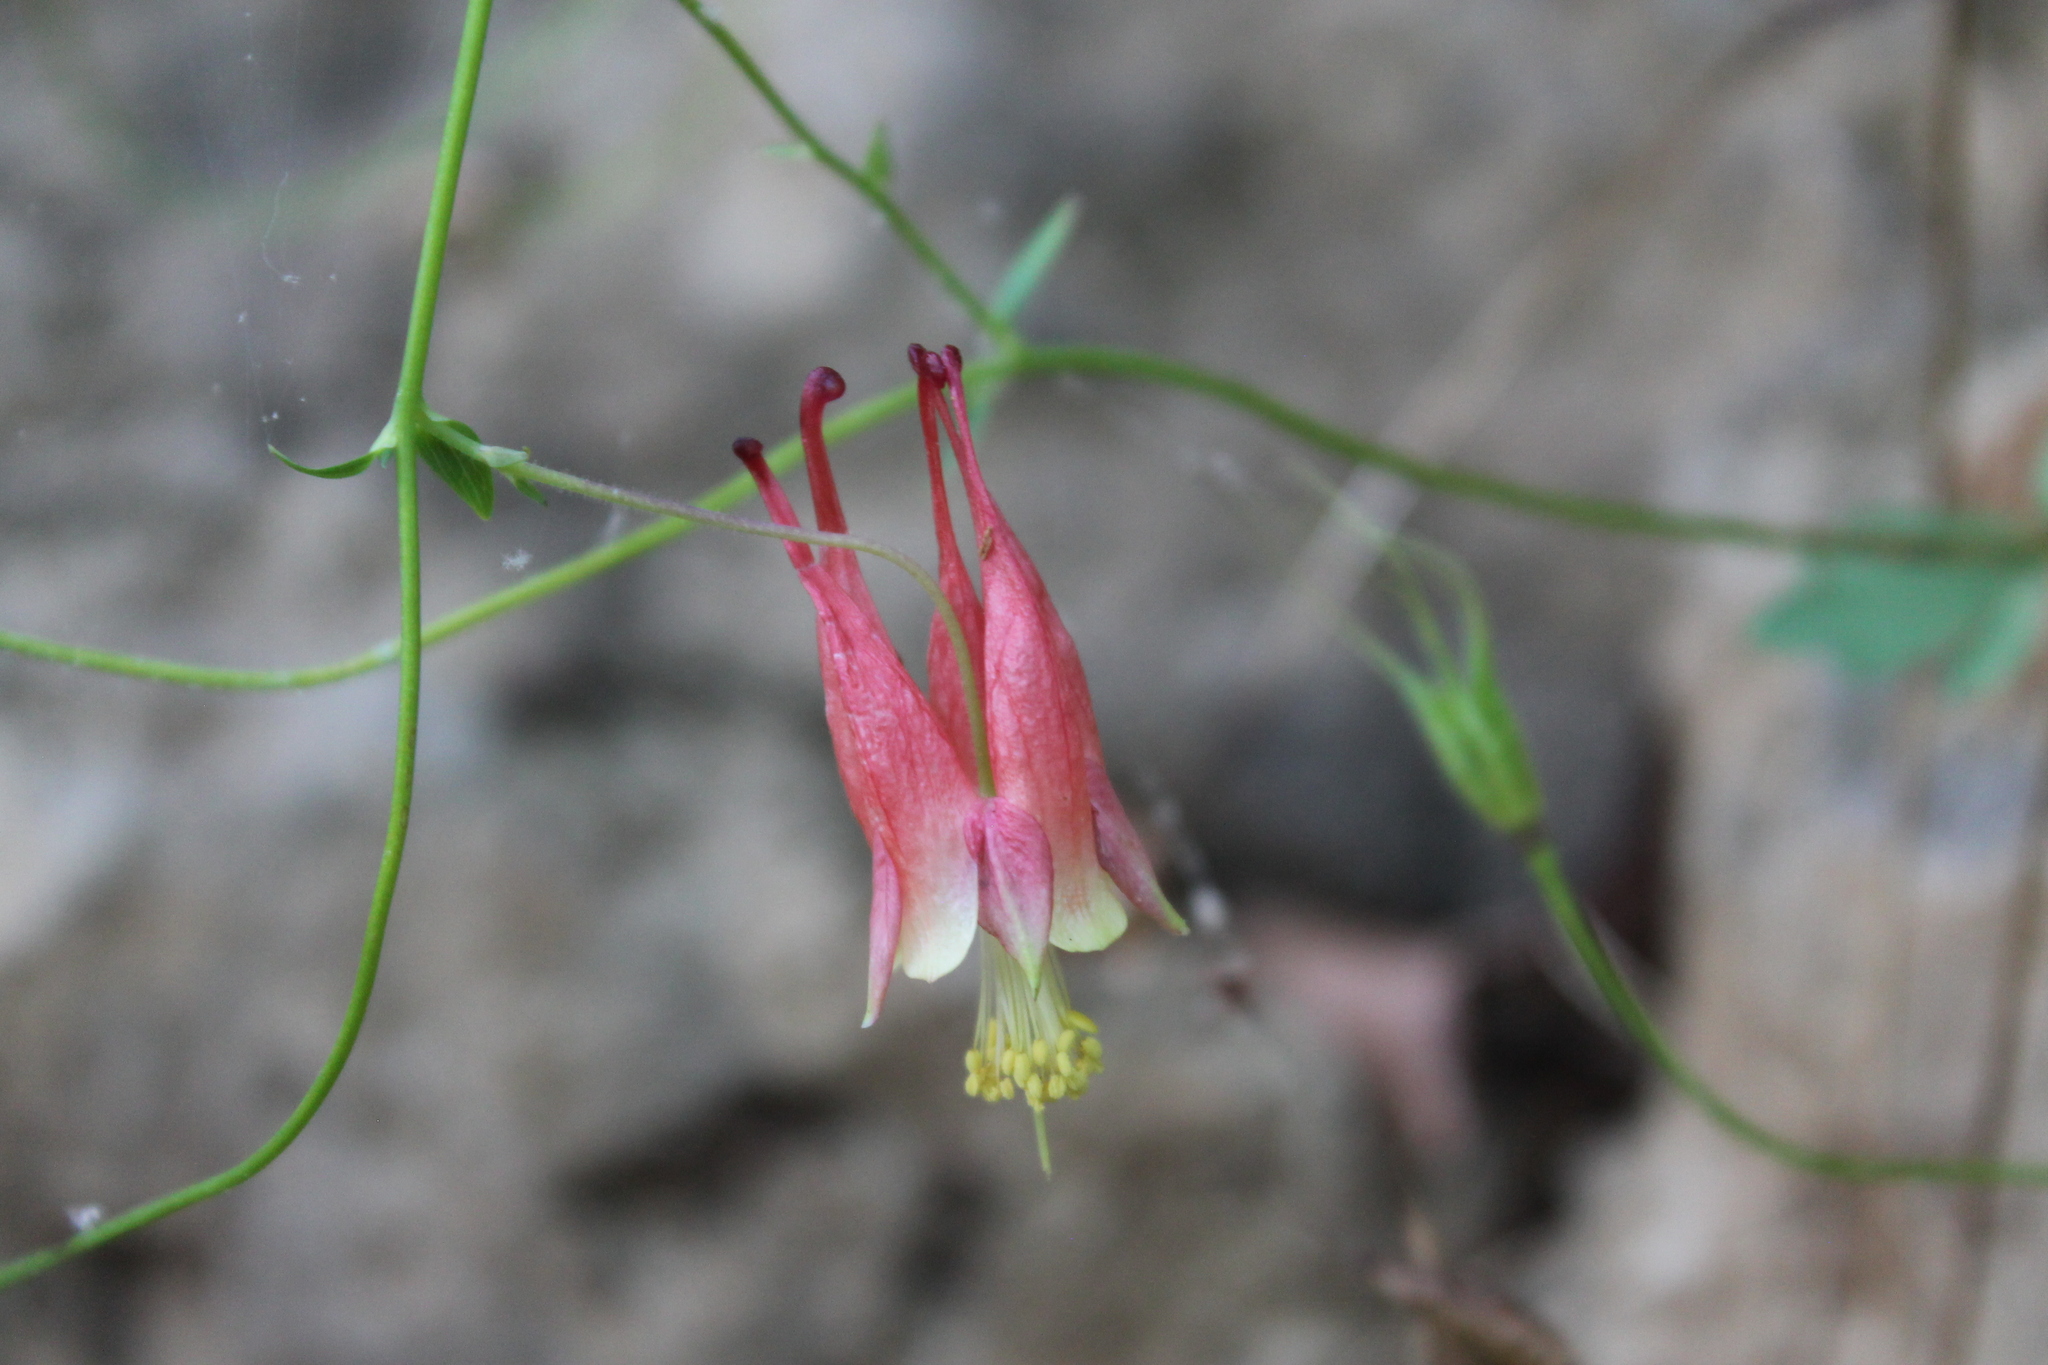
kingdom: Plantae
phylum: Tracheophyta
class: Magnoliopsida
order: Ranunculales
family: Ranunculaceae
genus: Aquilegia
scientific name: Aquilegia canadensis
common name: American columbine
